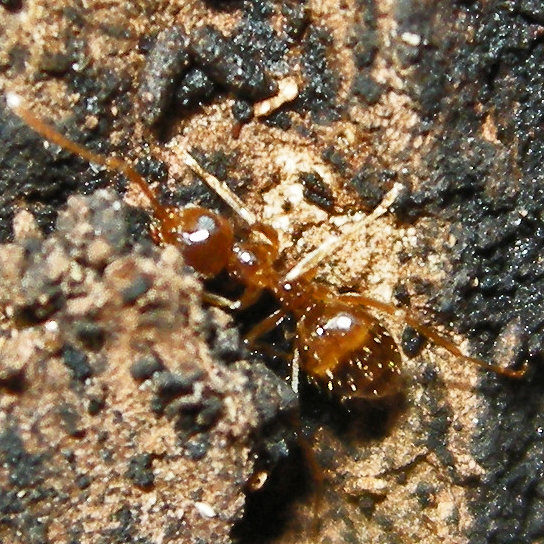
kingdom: Animalia
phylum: Arthropoda
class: Insecta
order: Hymenoptera
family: Formicidae
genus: Prenolepis
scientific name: Prenolepis imparis
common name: Small honey ant
